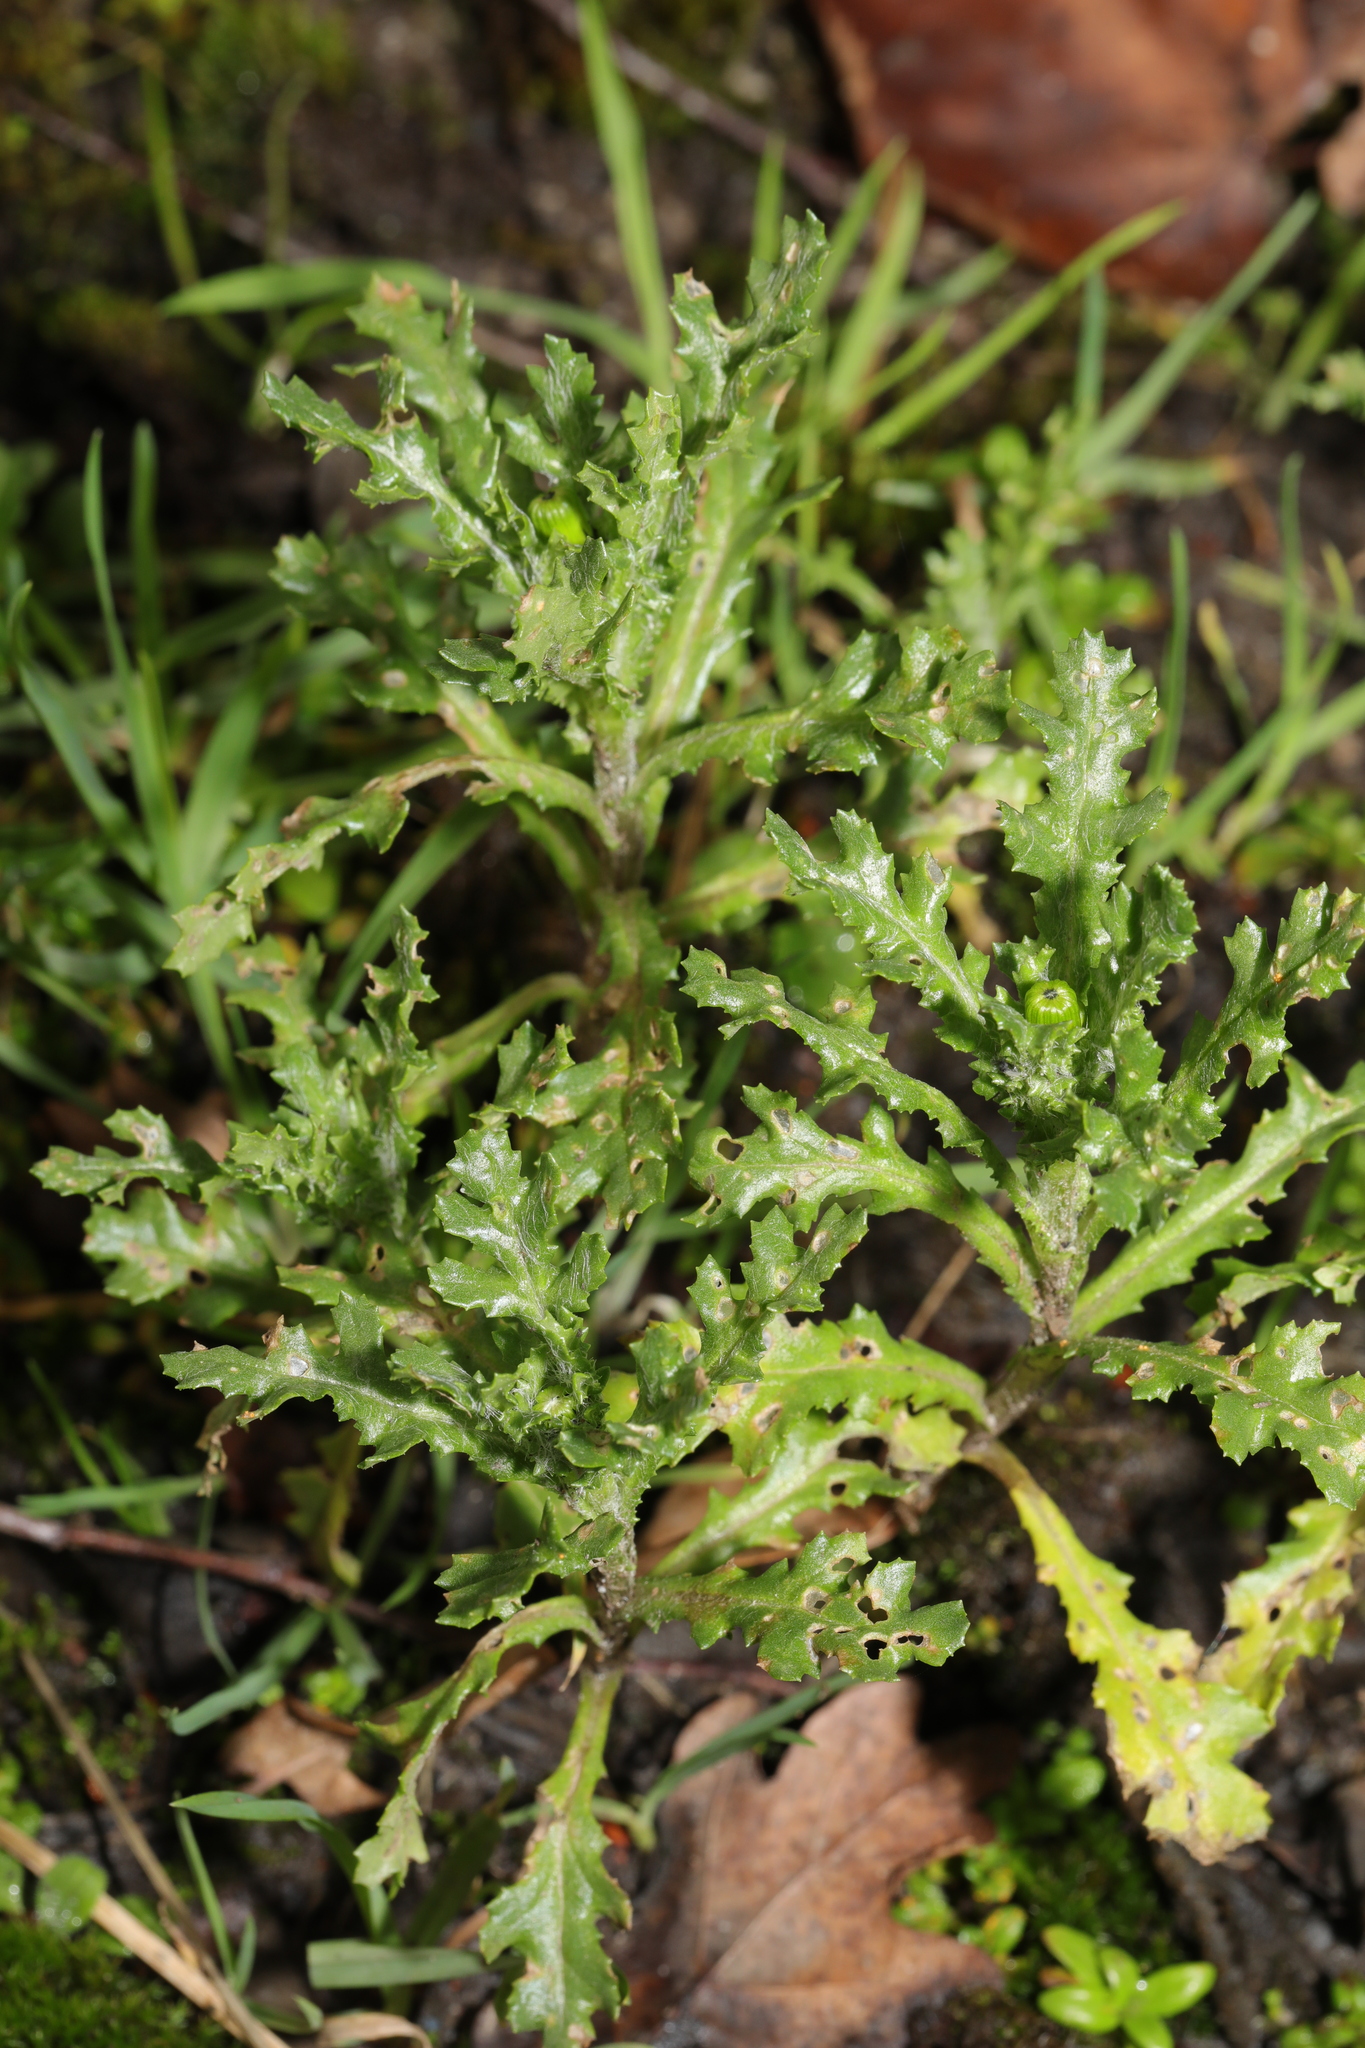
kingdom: Plantae
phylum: Tracheophyta
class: Magnoliopsida
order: Asterales
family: Asteraceae
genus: Senecio
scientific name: Senecio vulgaris
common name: Old-man-in-the-spring
